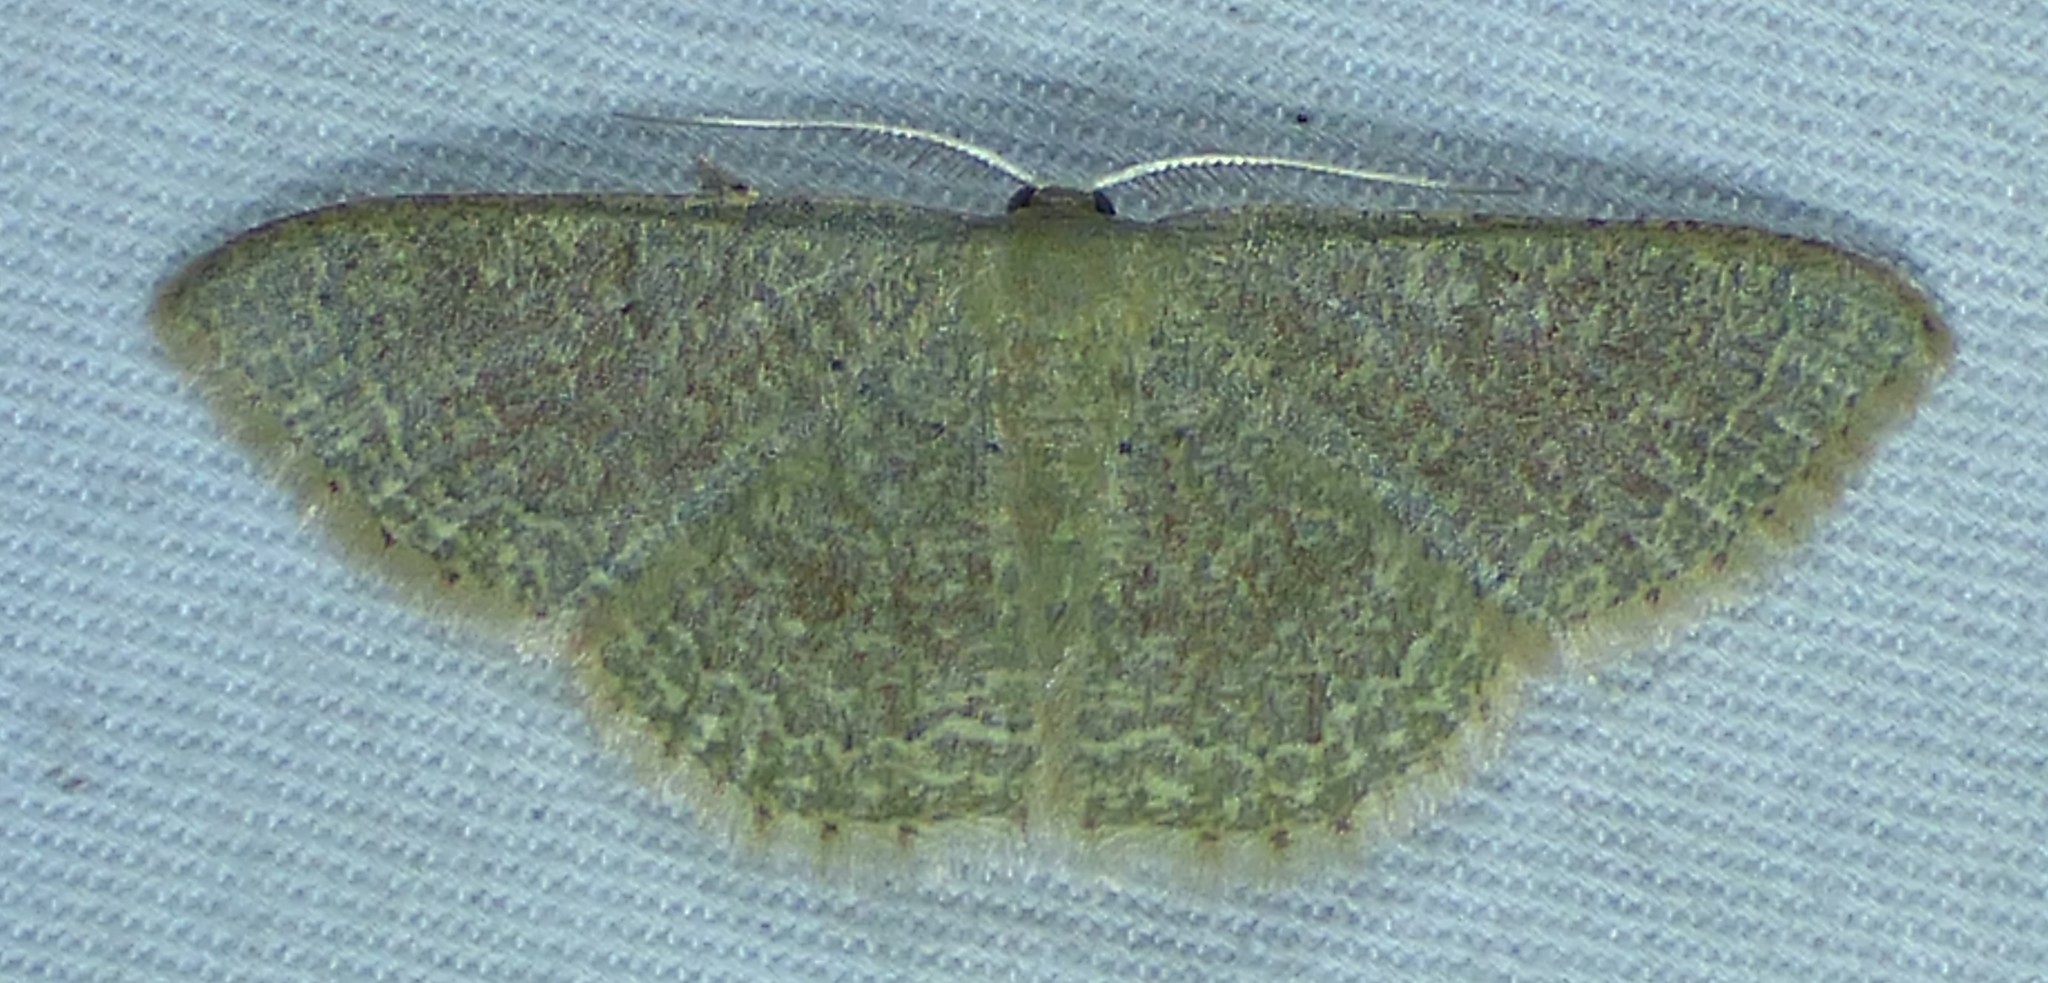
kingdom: Animalia
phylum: Arthropoda
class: Insecta
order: Lepidoptera
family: Geometridae
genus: Pleuroprucha
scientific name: Pleuroprucha insulsaria
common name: Common tan wave
